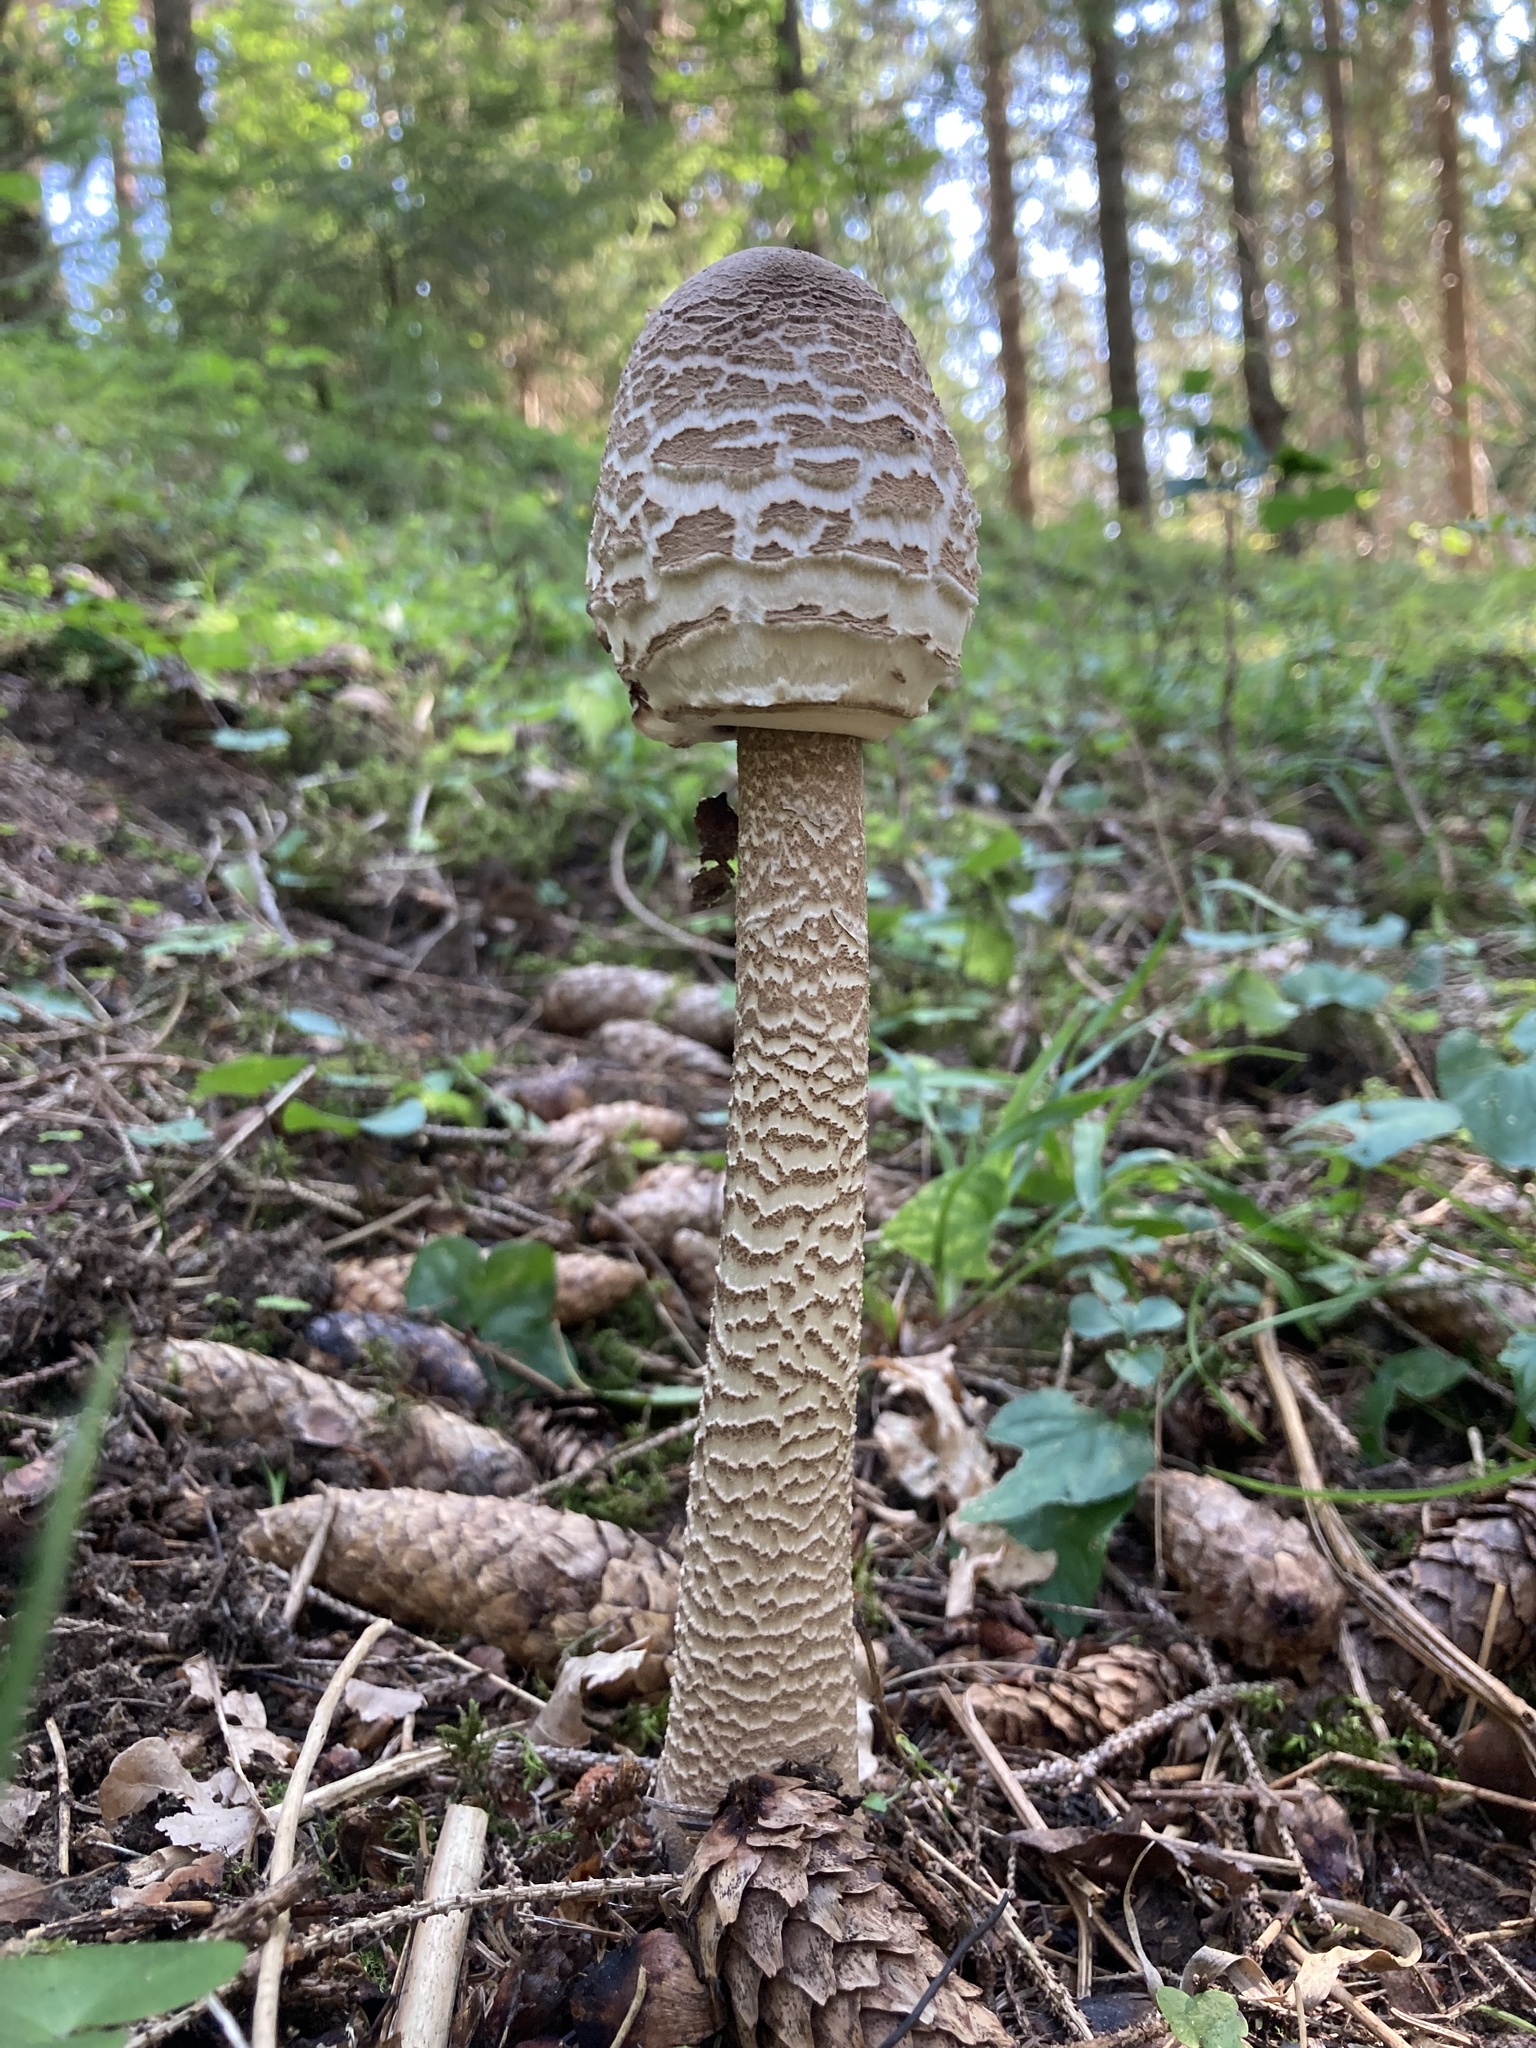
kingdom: Fungi
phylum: Basidiomycota
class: Agaricomycetes
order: Agaricales
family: Agaricaceae
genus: Macrolepiota
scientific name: Macrolepiota procera
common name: Parasol
